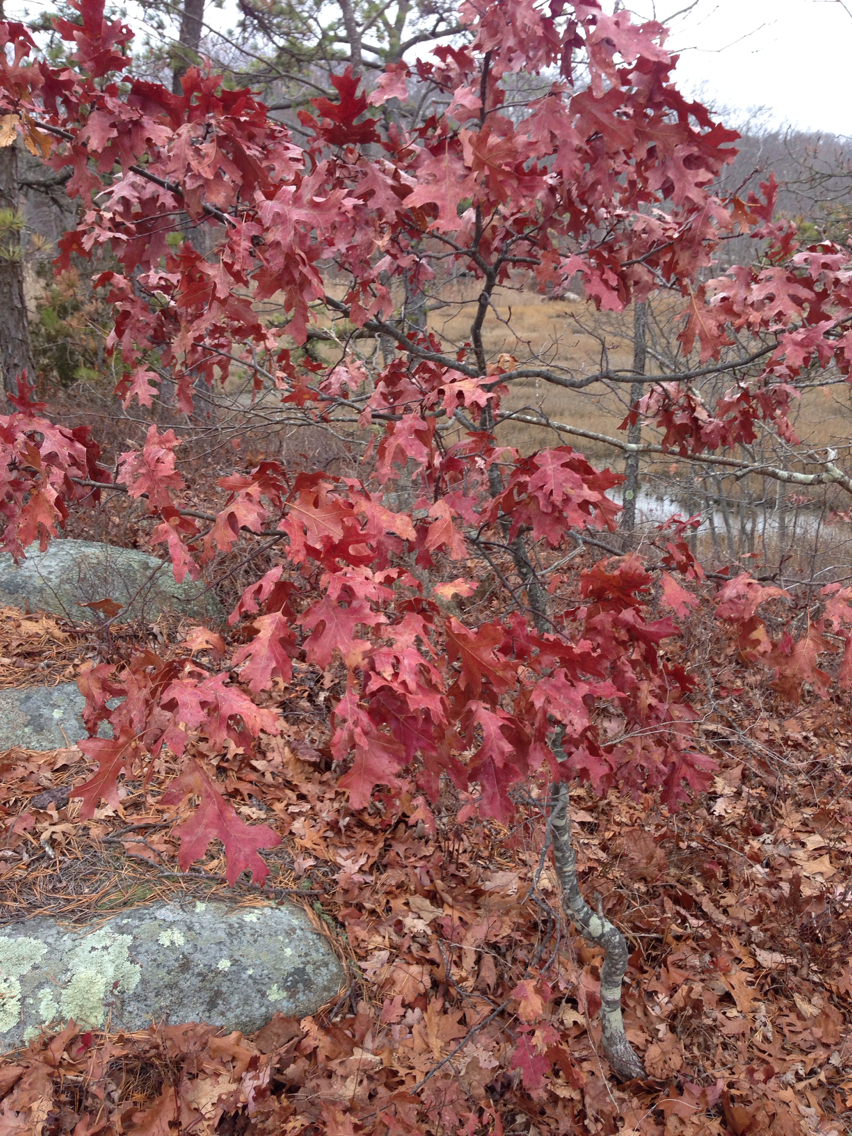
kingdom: Plantae
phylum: Tracheophyta
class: Magnoliopsida
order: Fagales
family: Fagaceae
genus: Quercus
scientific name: Quercus coccinea
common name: Scarlet oak
